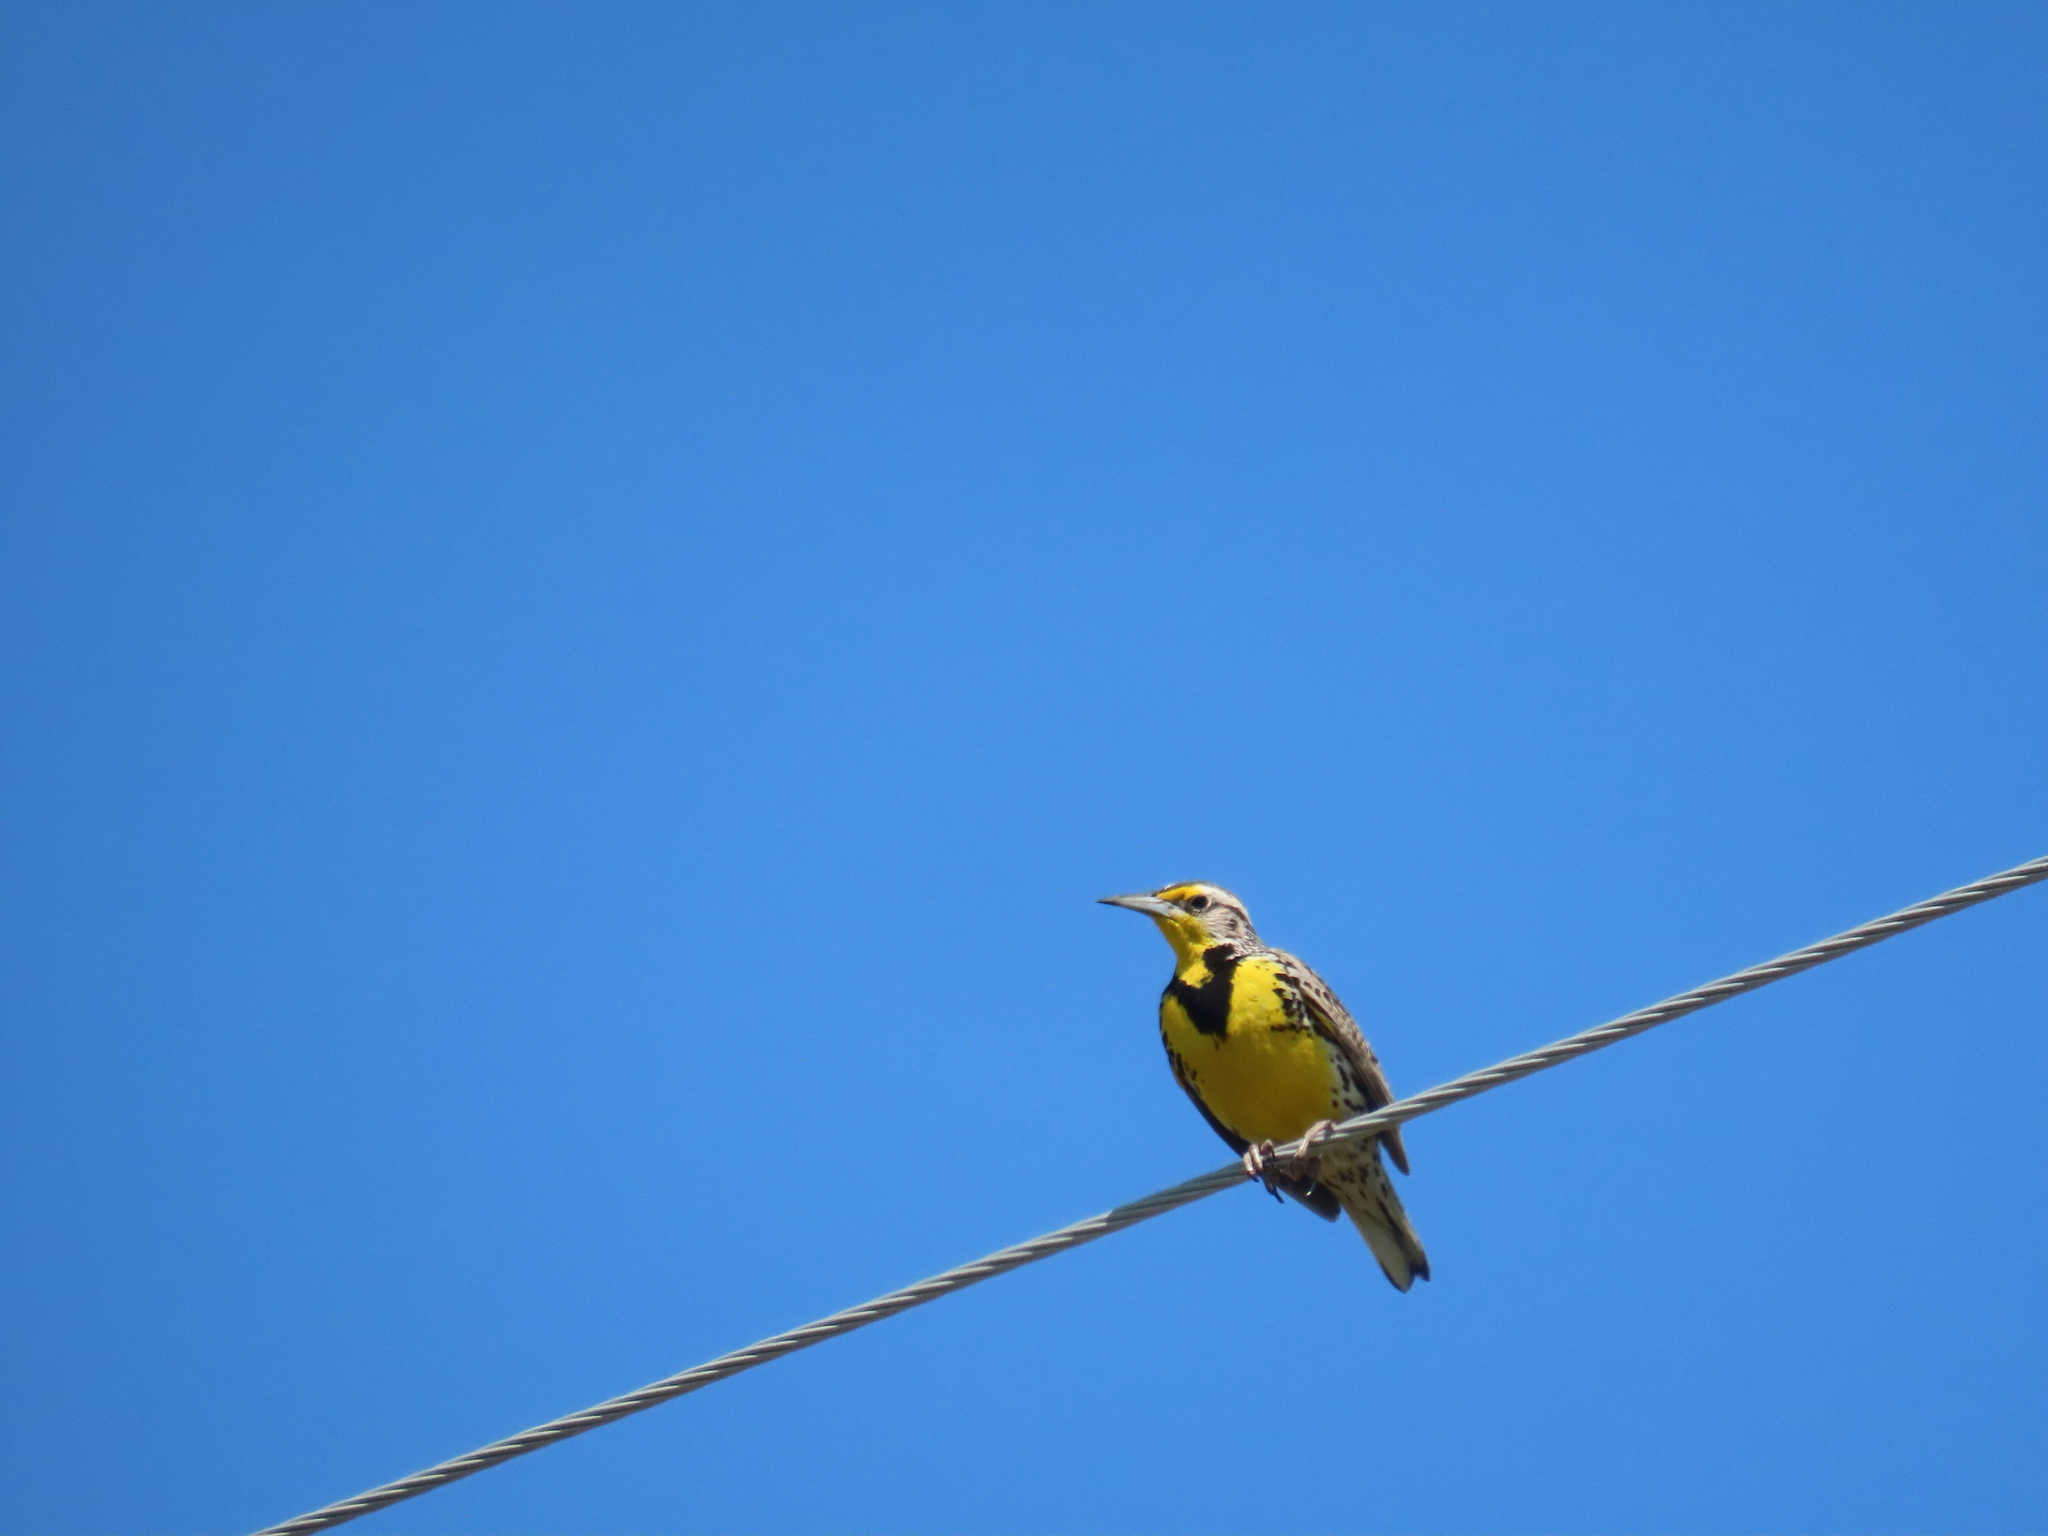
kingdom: Animalia
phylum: Chordata
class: Aves
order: Passeriformes
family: Icteridae
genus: Sturnella
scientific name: Sturnella neglecta
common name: Western meadowlark
